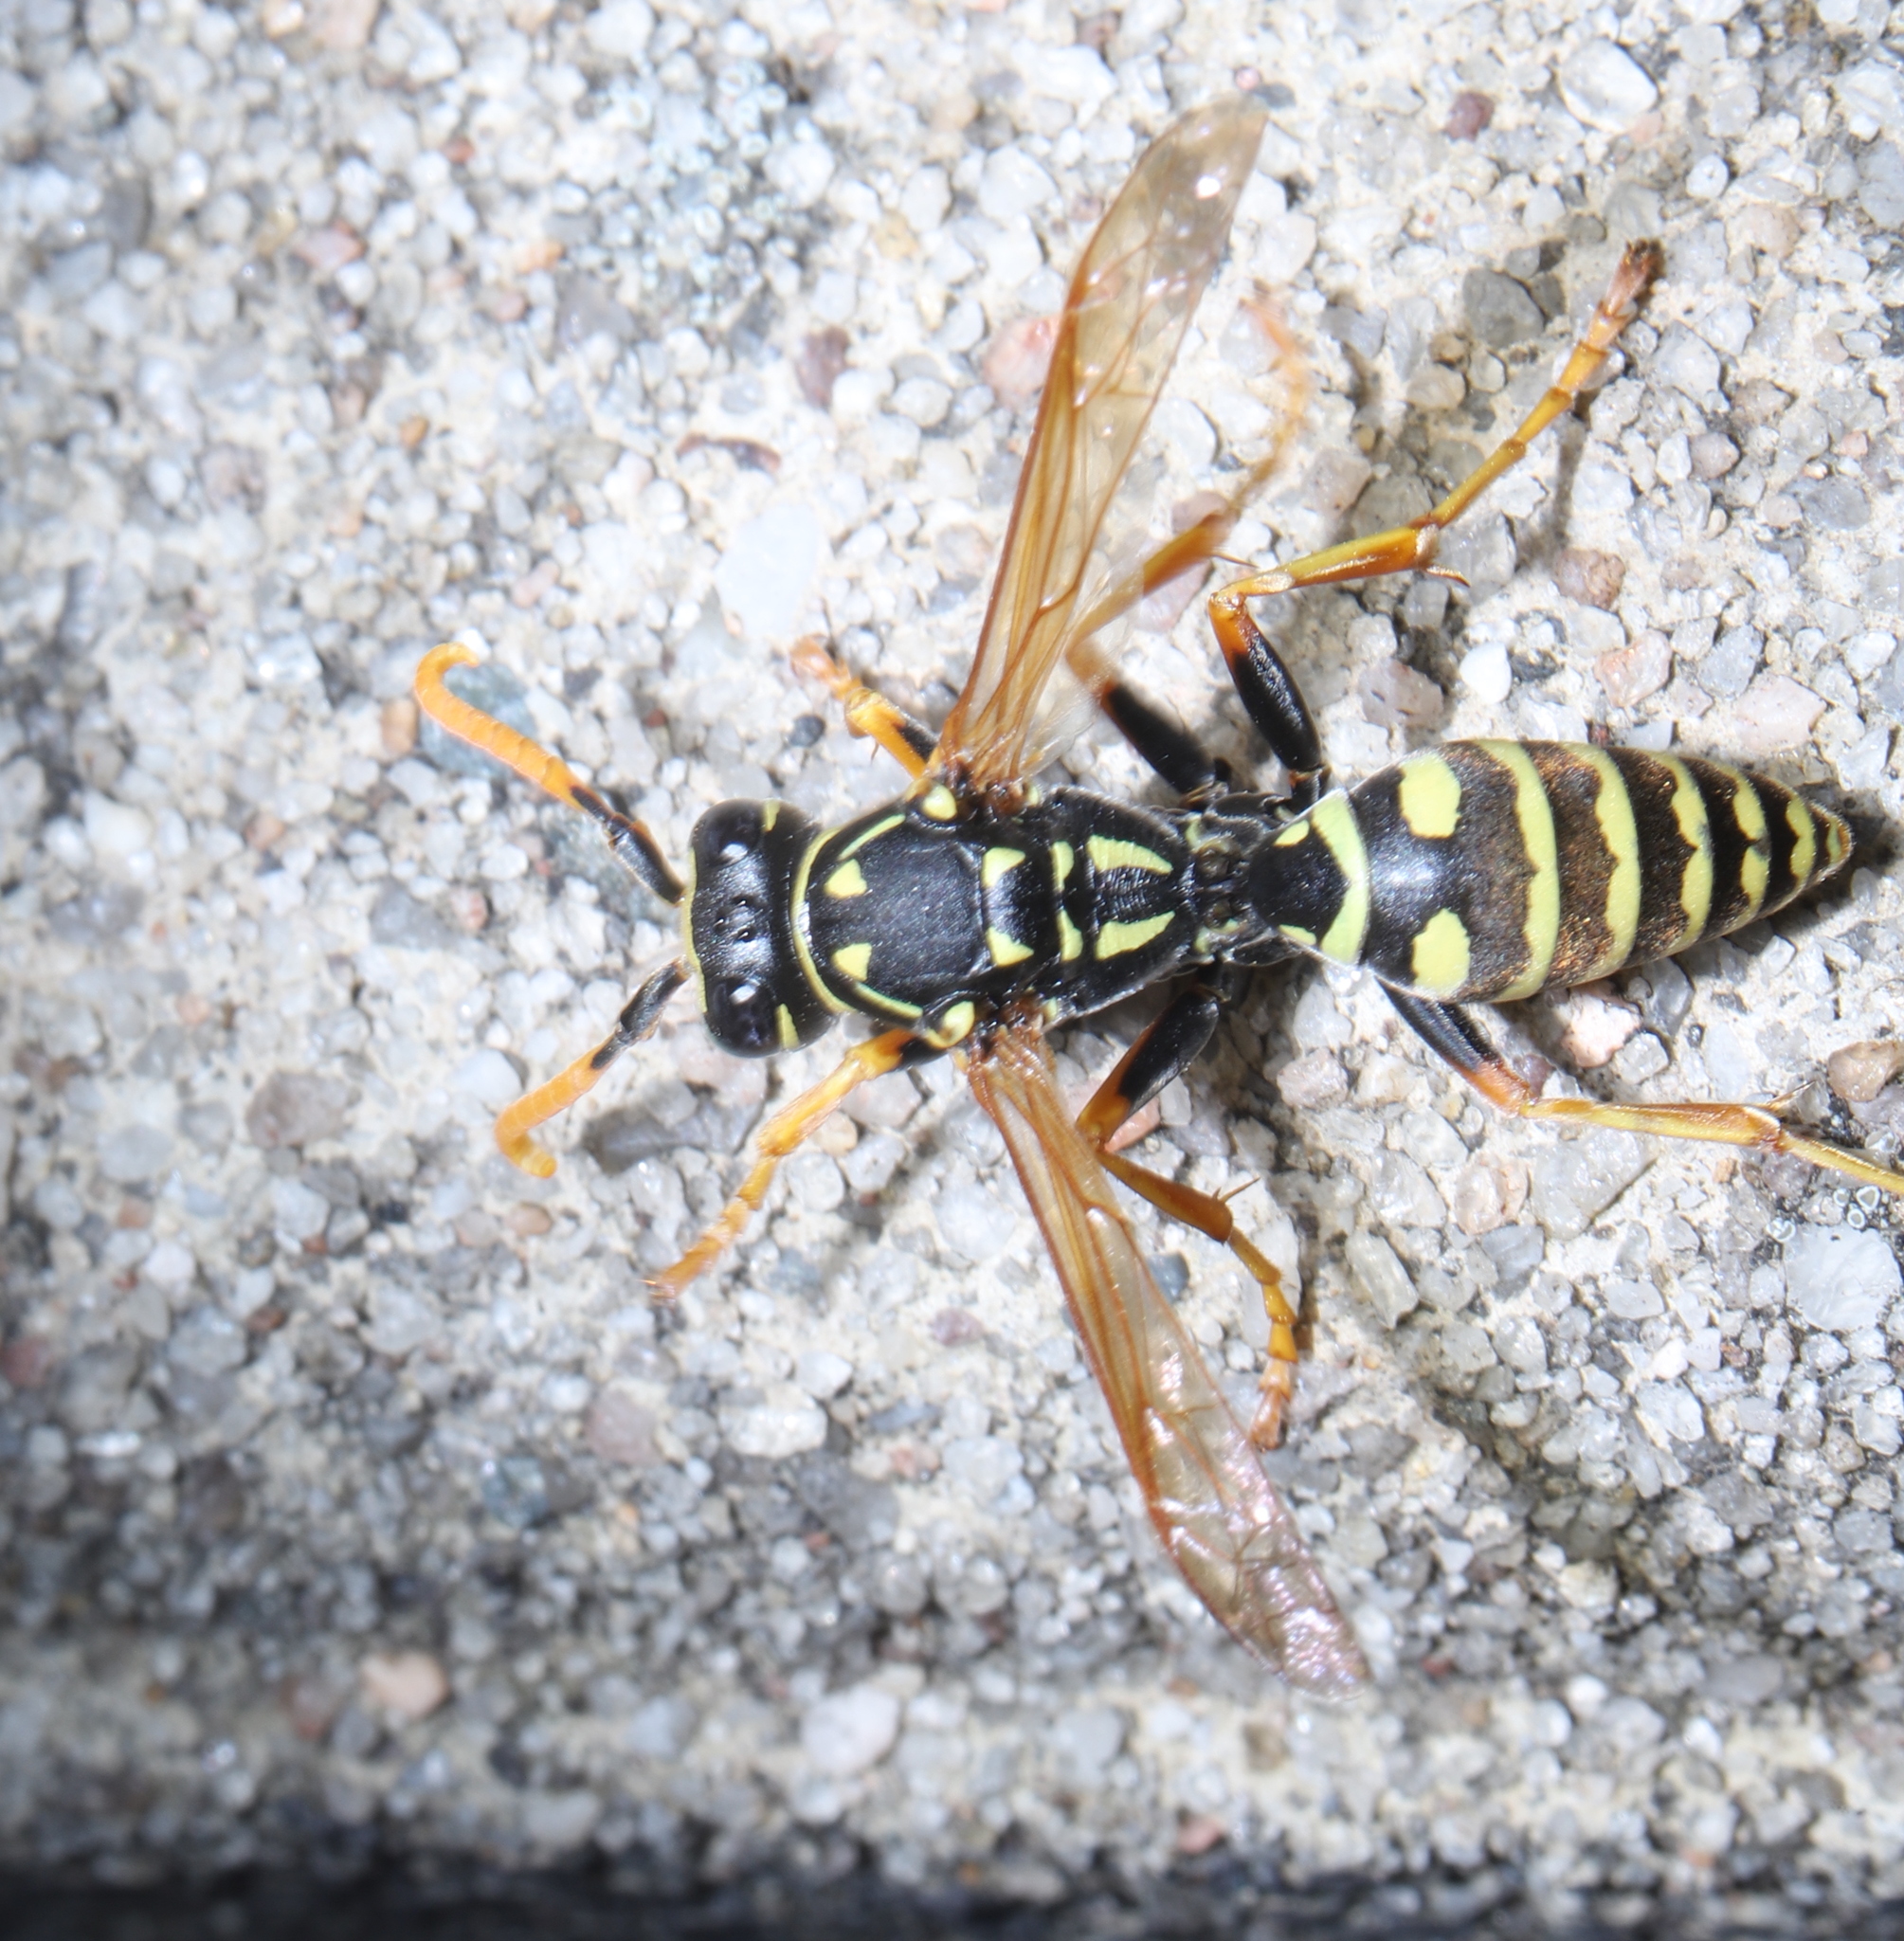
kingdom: Animalia
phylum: Arthropoda
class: Insecta
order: Hymenoptera
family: Eumenidae
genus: Polistes
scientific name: Polistes dominula
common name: Paper wasp
